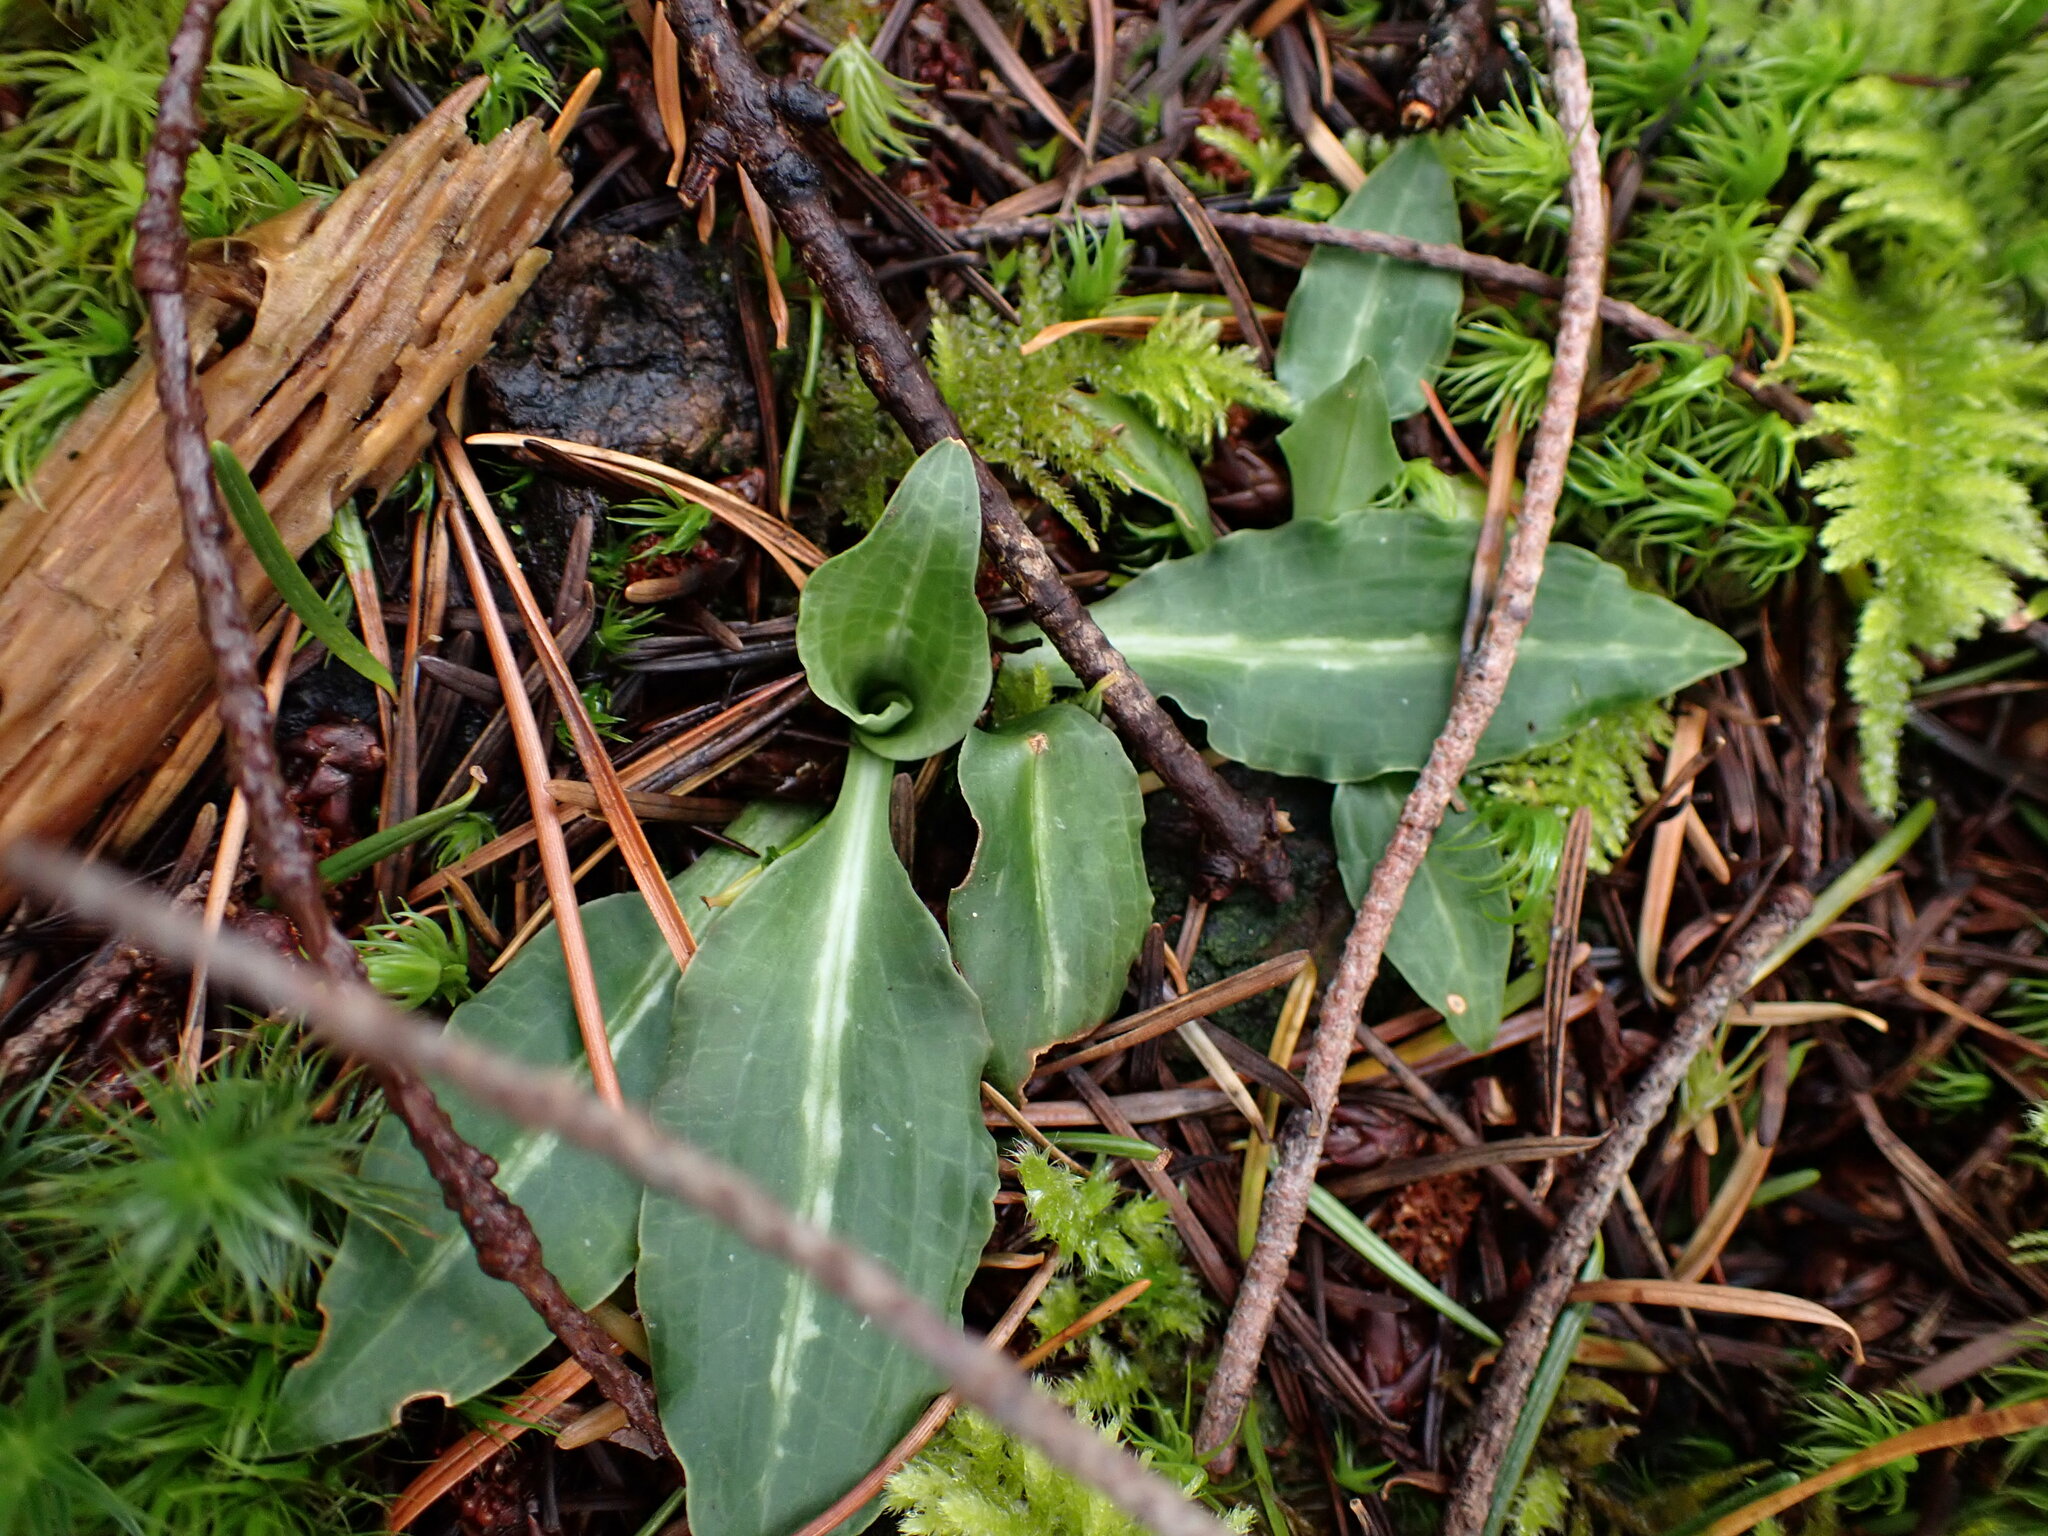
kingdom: Plantae
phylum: Tracheophyta
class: Liliopsida
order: Asparagales
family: Orchidaceae
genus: Goodyera
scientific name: Goodyera oblongifolia
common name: Giant rattlesnake-plantain
